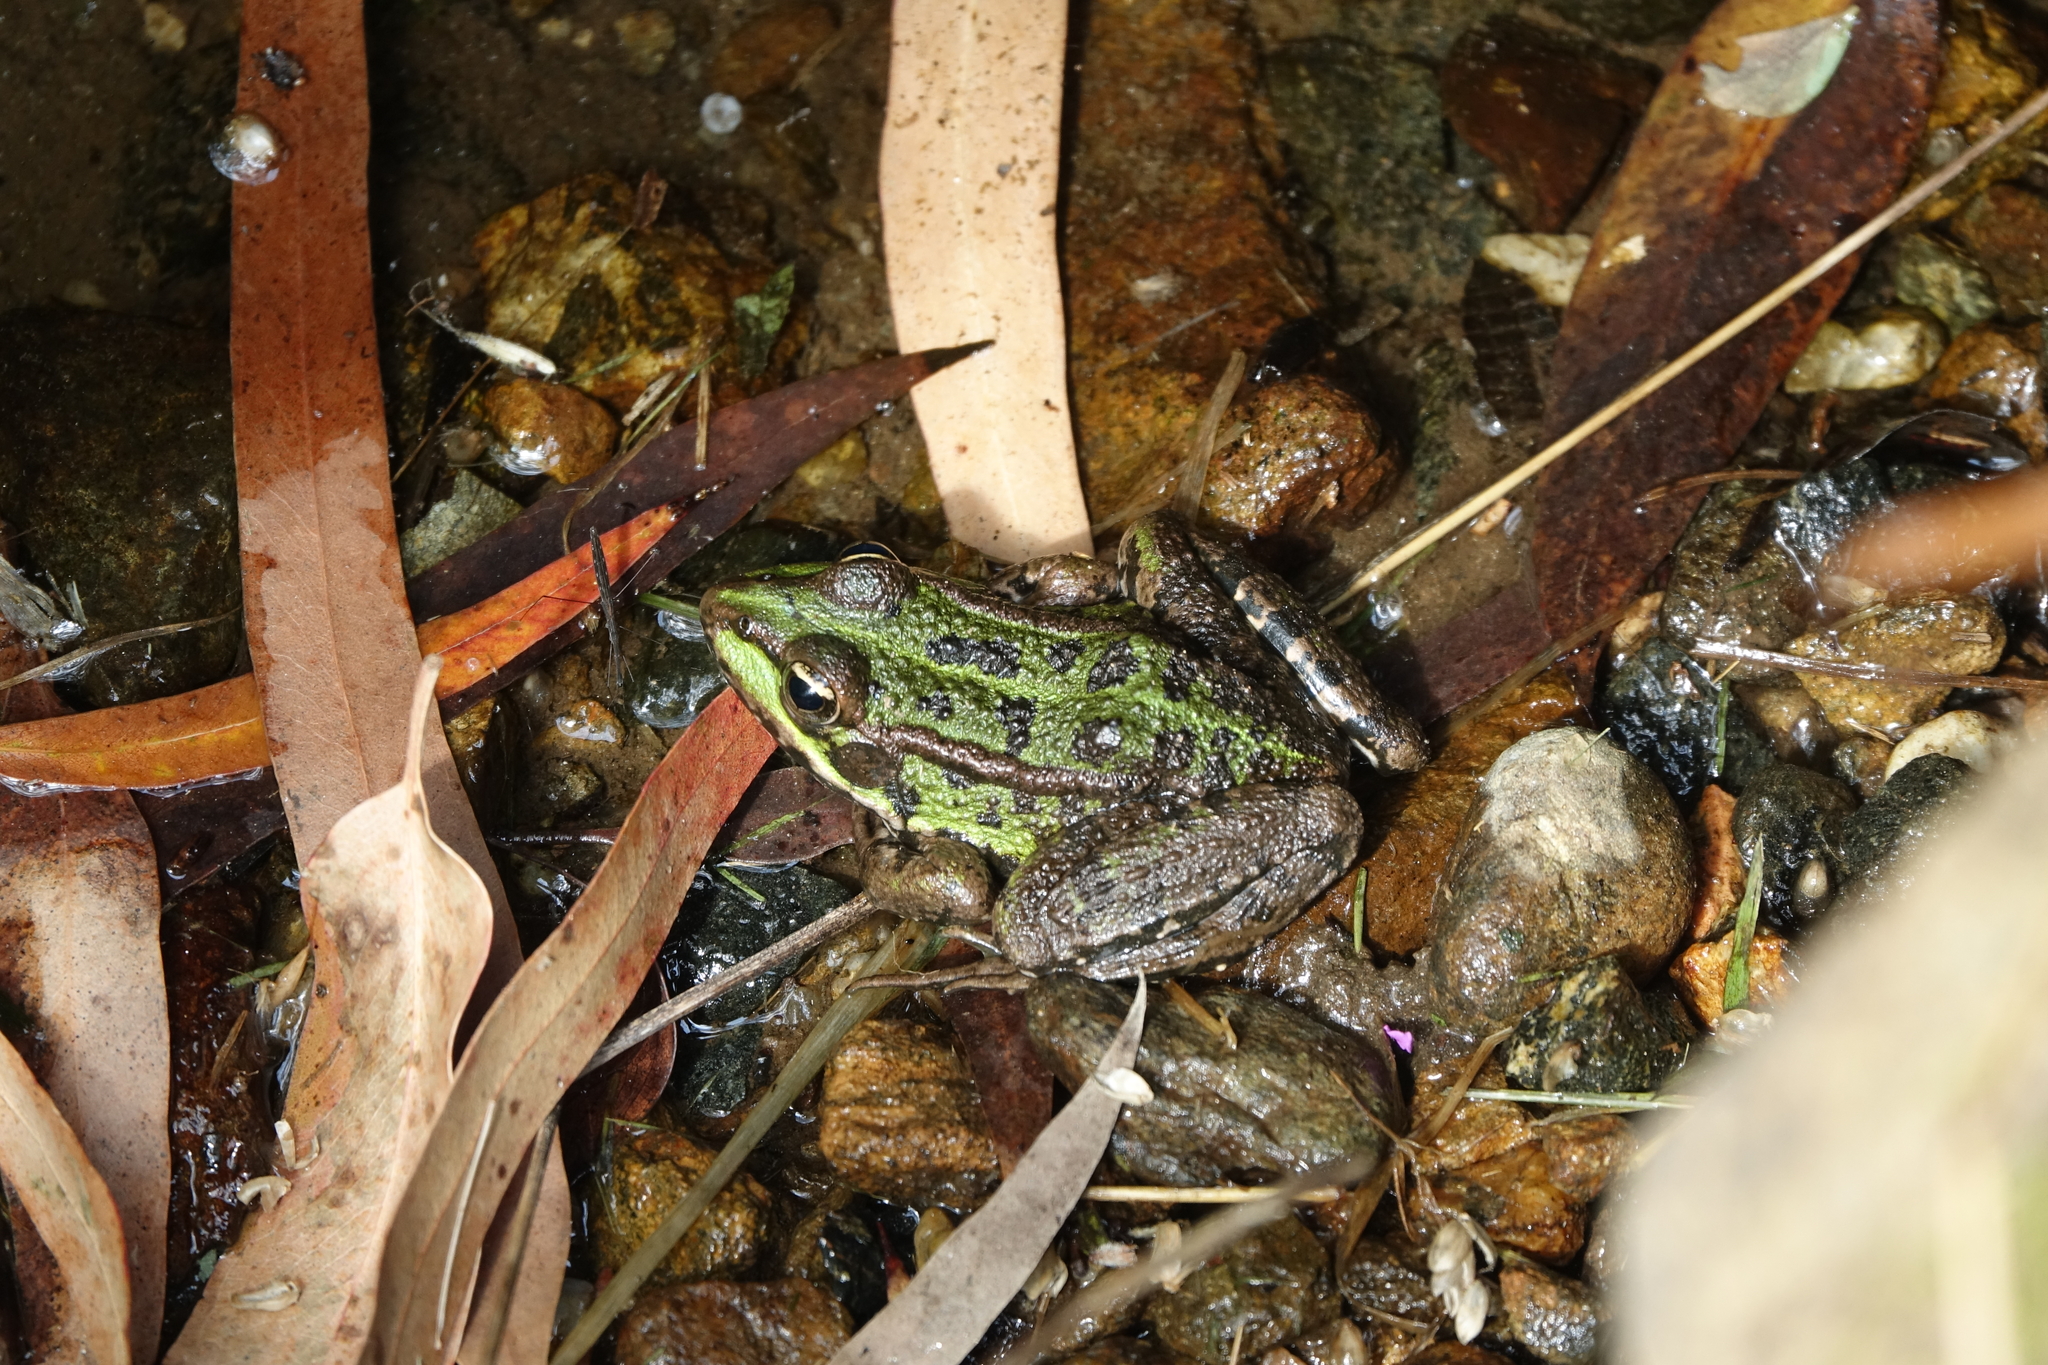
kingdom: Animalia
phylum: Chordata
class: Amphibia
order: Anura
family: Ranidae
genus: Pelophylax
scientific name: Pelophylax perezi
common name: Perez's frog
